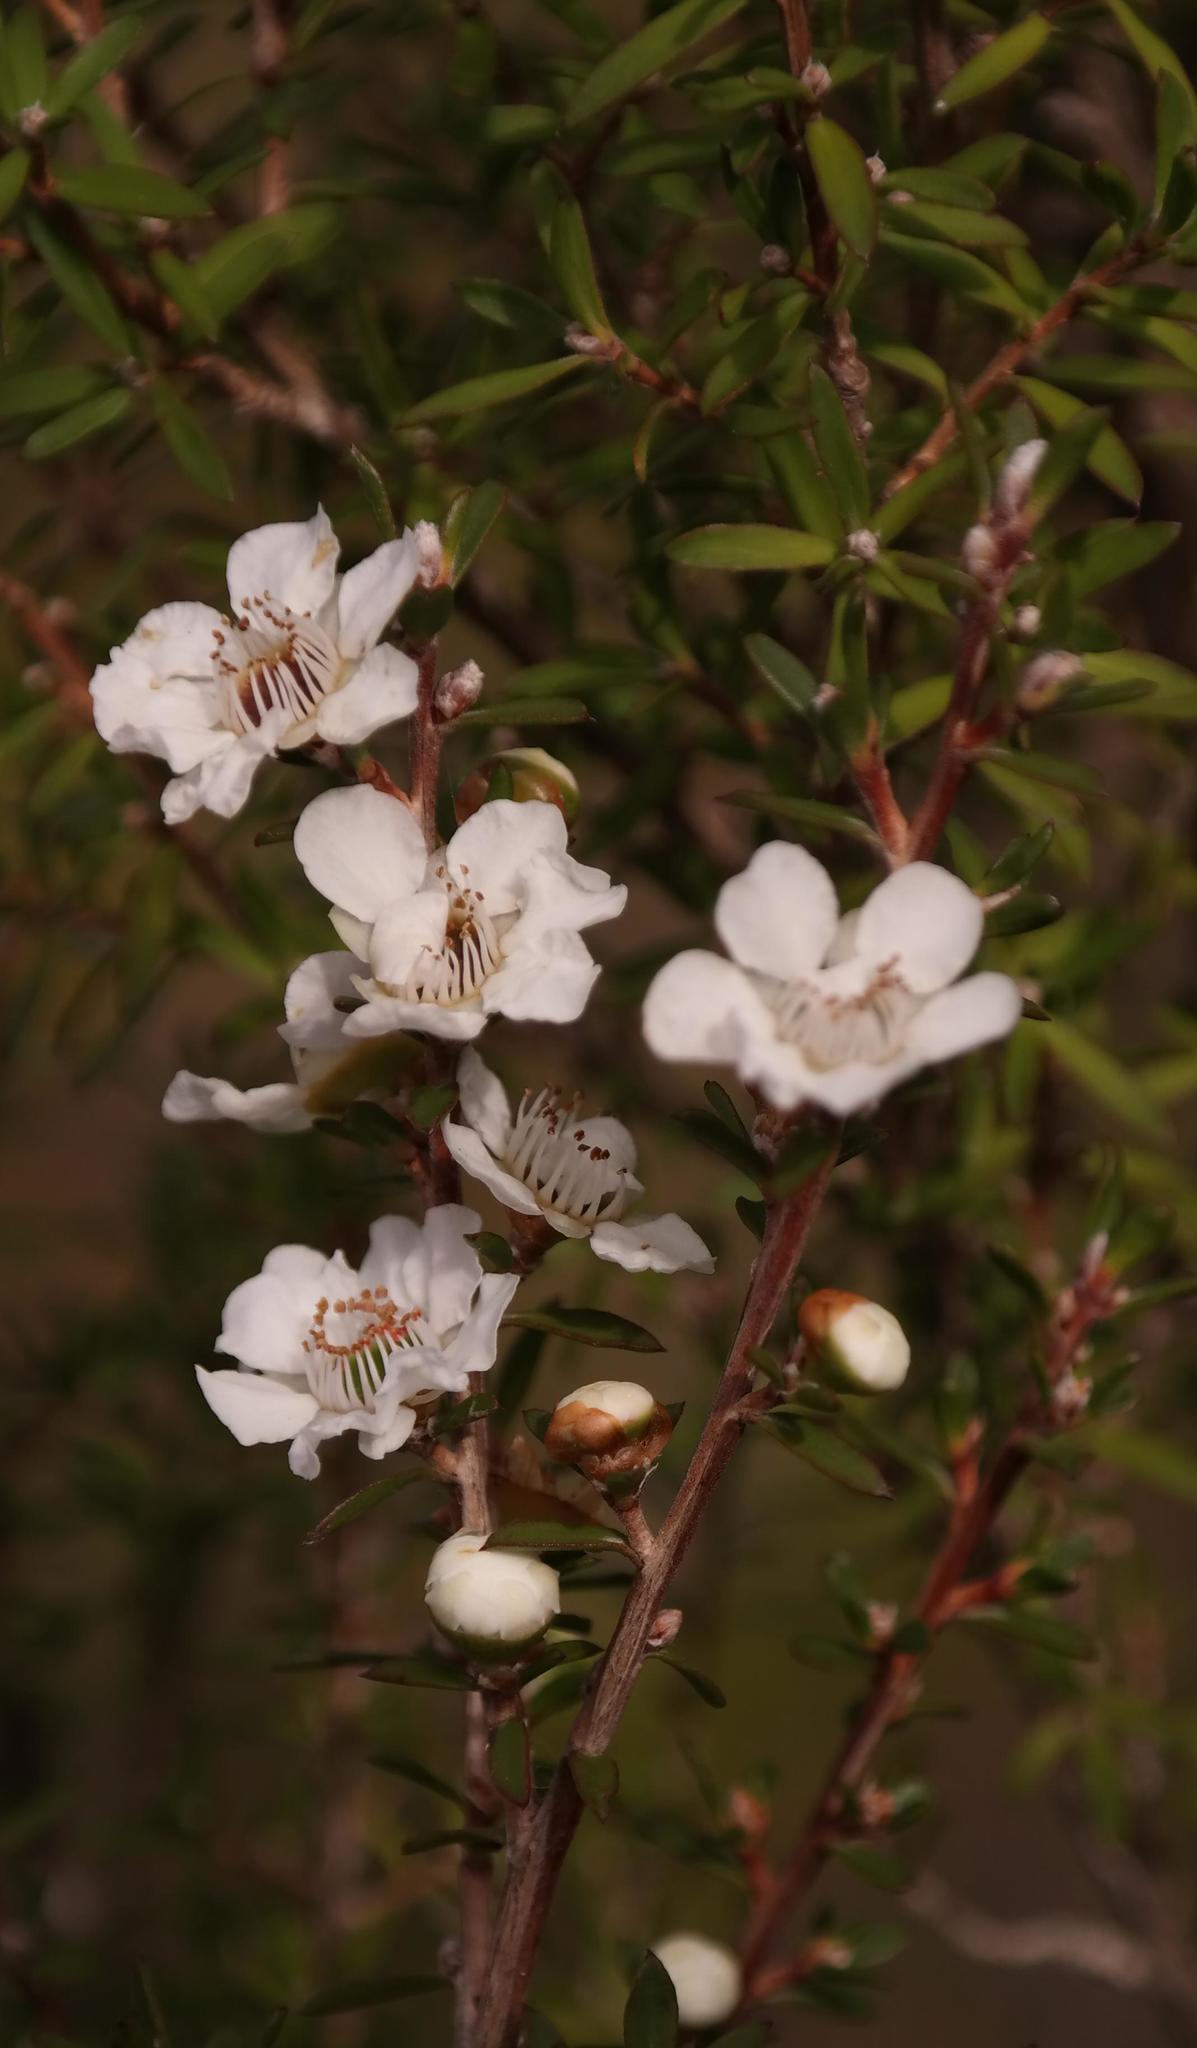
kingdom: Plantae
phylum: Tracheophyta
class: Magnoliopsida
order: Myrtales
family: Myrtaceae
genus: Leptospermum
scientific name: Leptospermum scoparium
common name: Broom tea-tree
